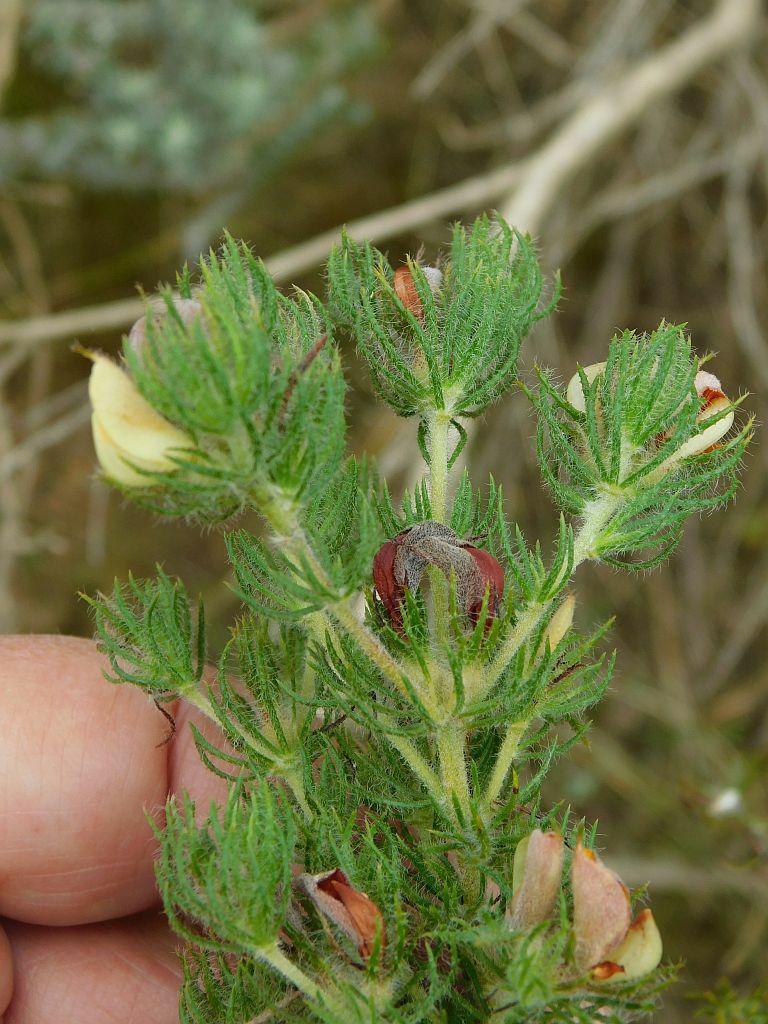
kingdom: Plantae
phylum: Tracheophyta
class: Magnoliopsida
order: Fabales
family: Fabaceae
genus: Aspalathus
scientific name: Aspalathus ciliaris
